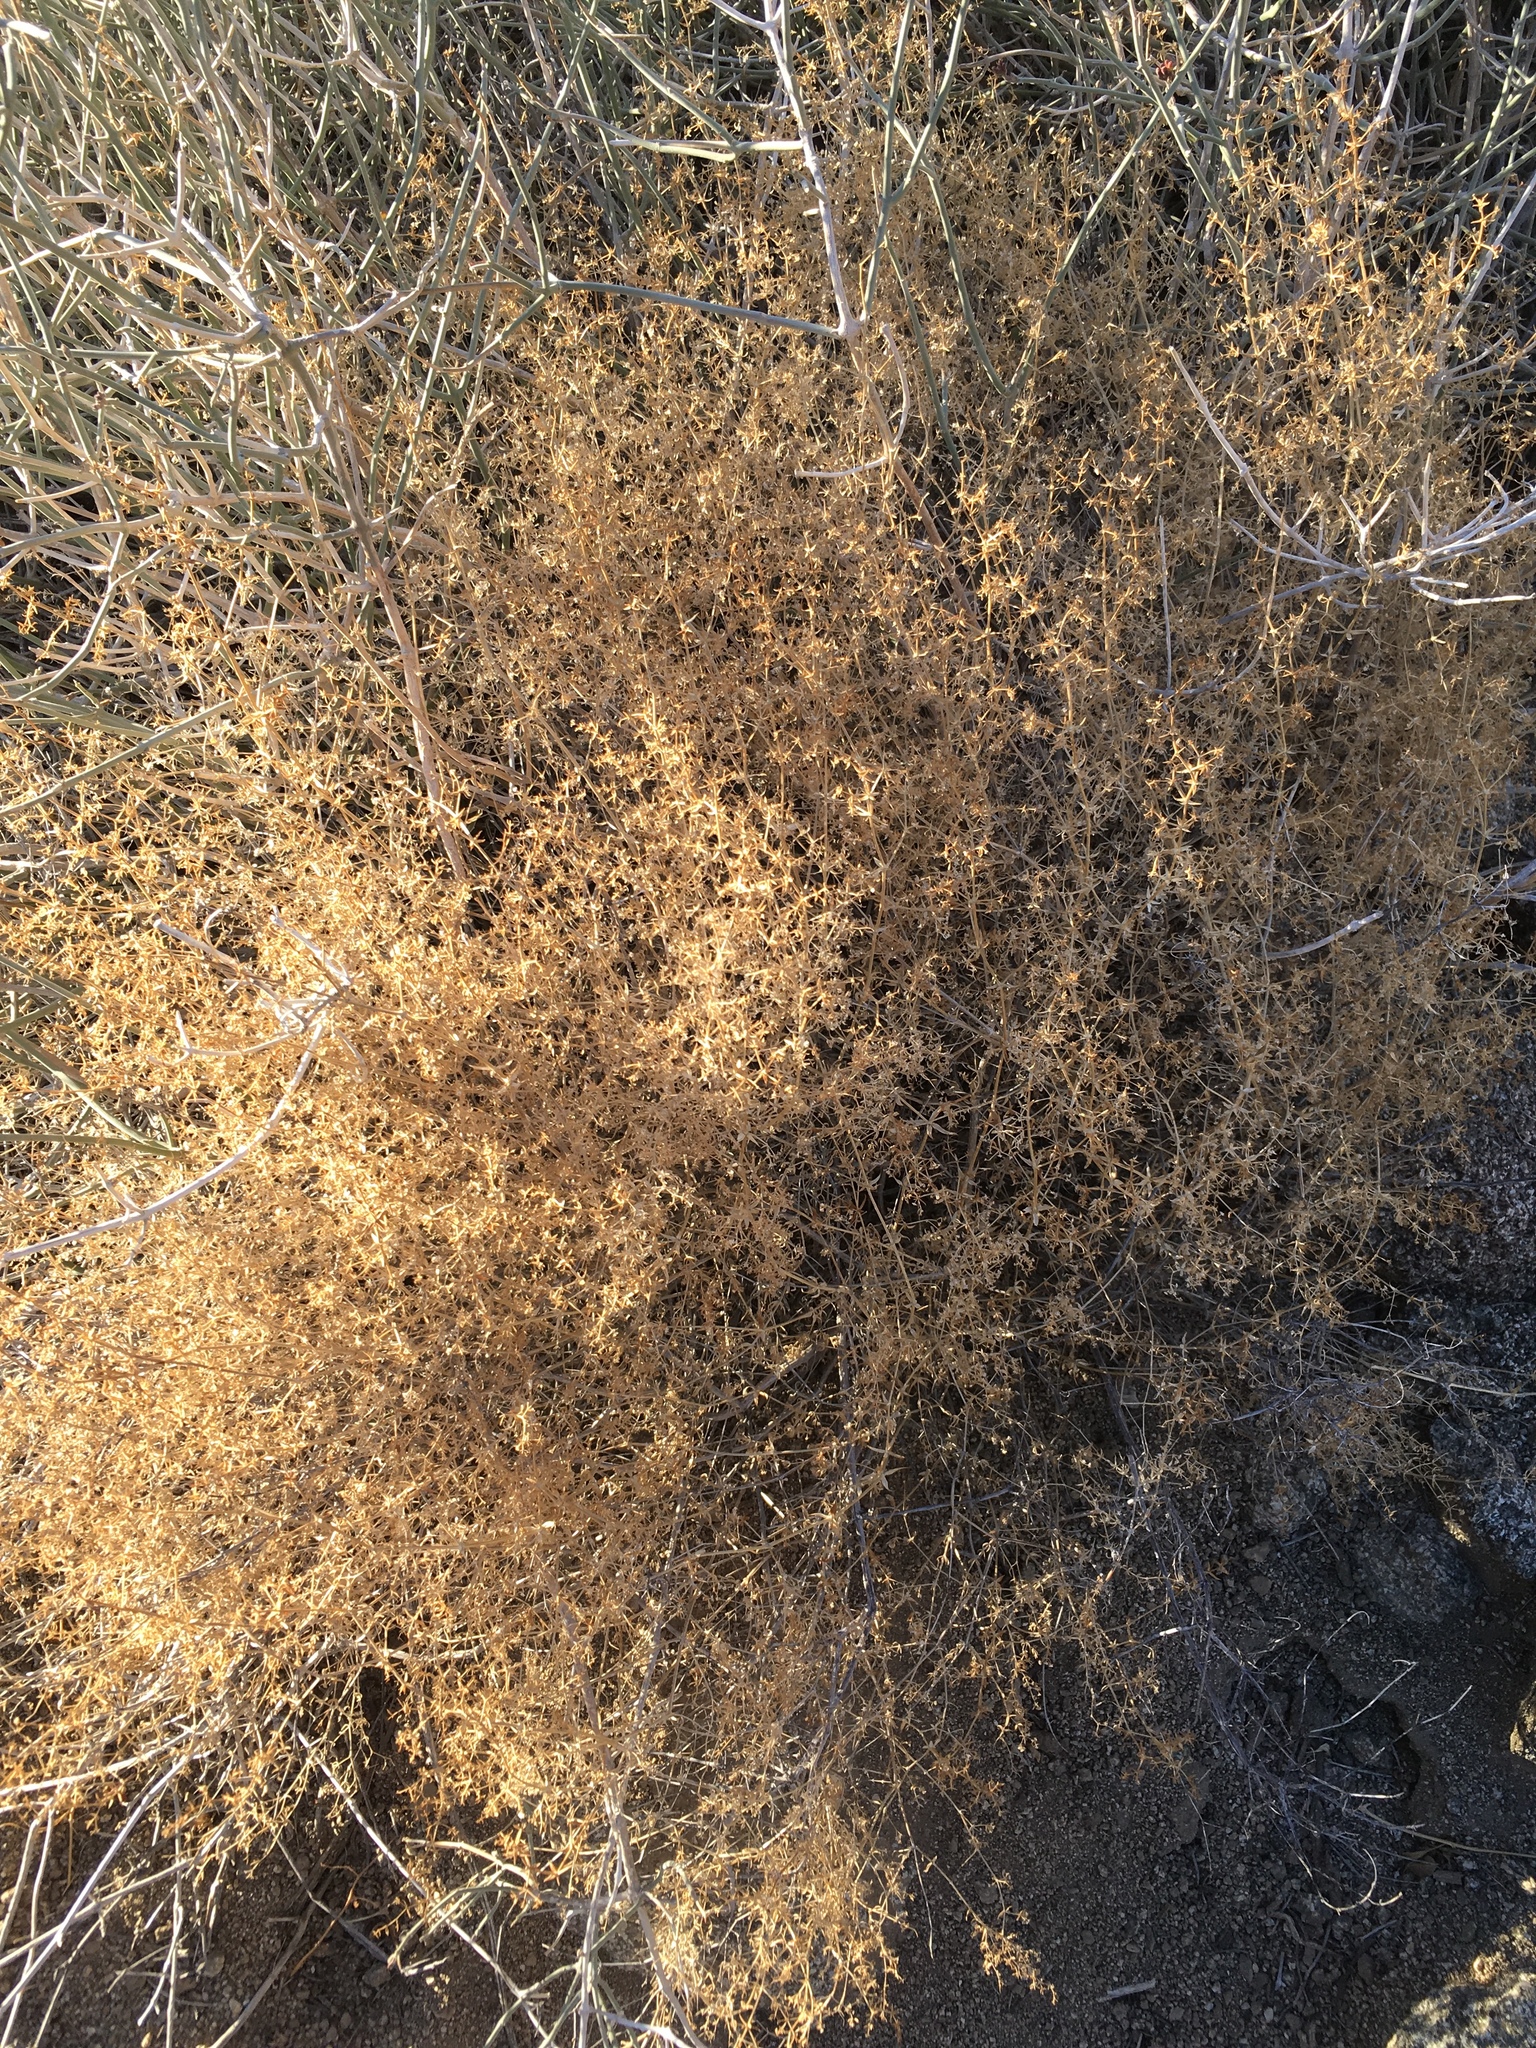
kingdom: Plantae
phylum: Tracheophyta
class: Magnoliopsida
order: Gentianales
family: Rubiaceae
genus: Galium
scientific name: Galium stellatum
